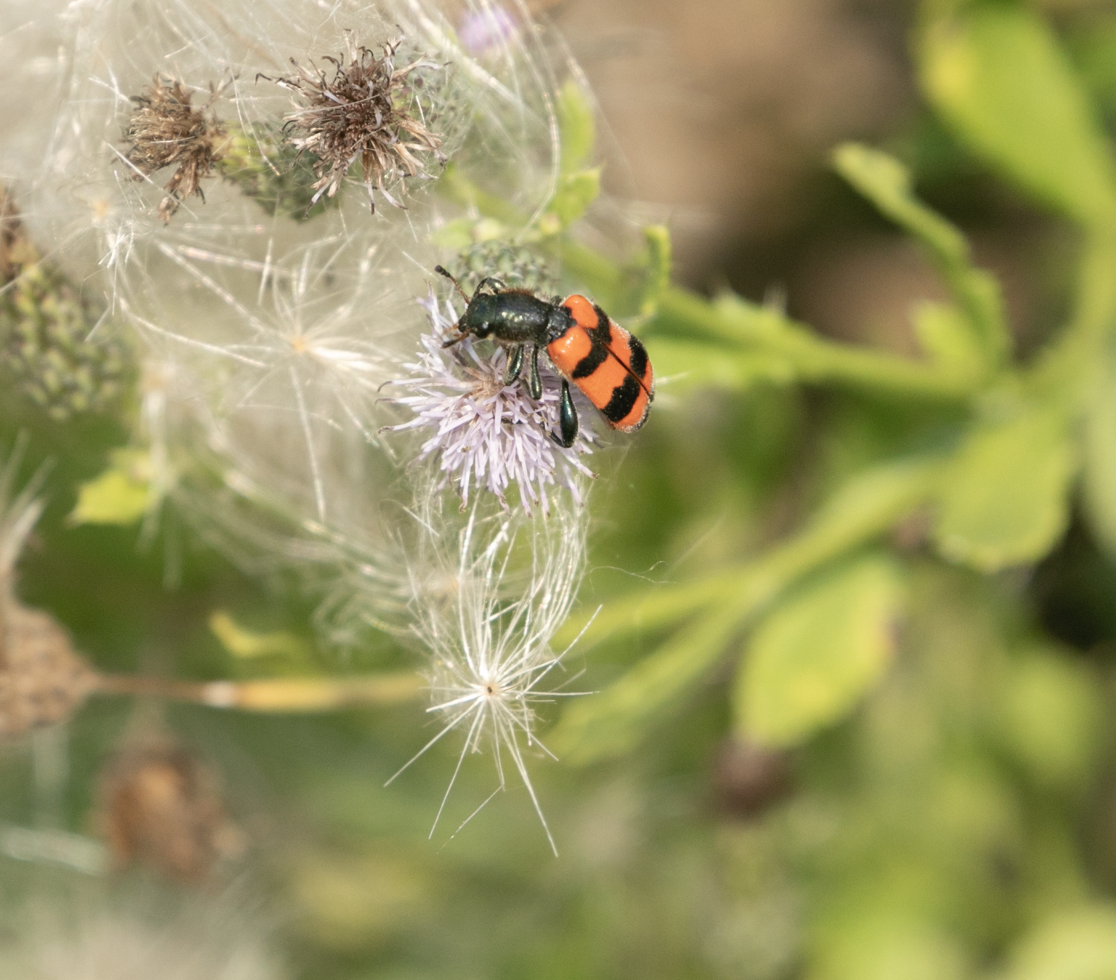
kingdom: Animalia
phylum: Arthropoda
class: Insecta
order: Coleoptera
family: Cleridae
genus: Trichodes
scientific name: Trichodes apiarius
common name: Bee-eating beetle
